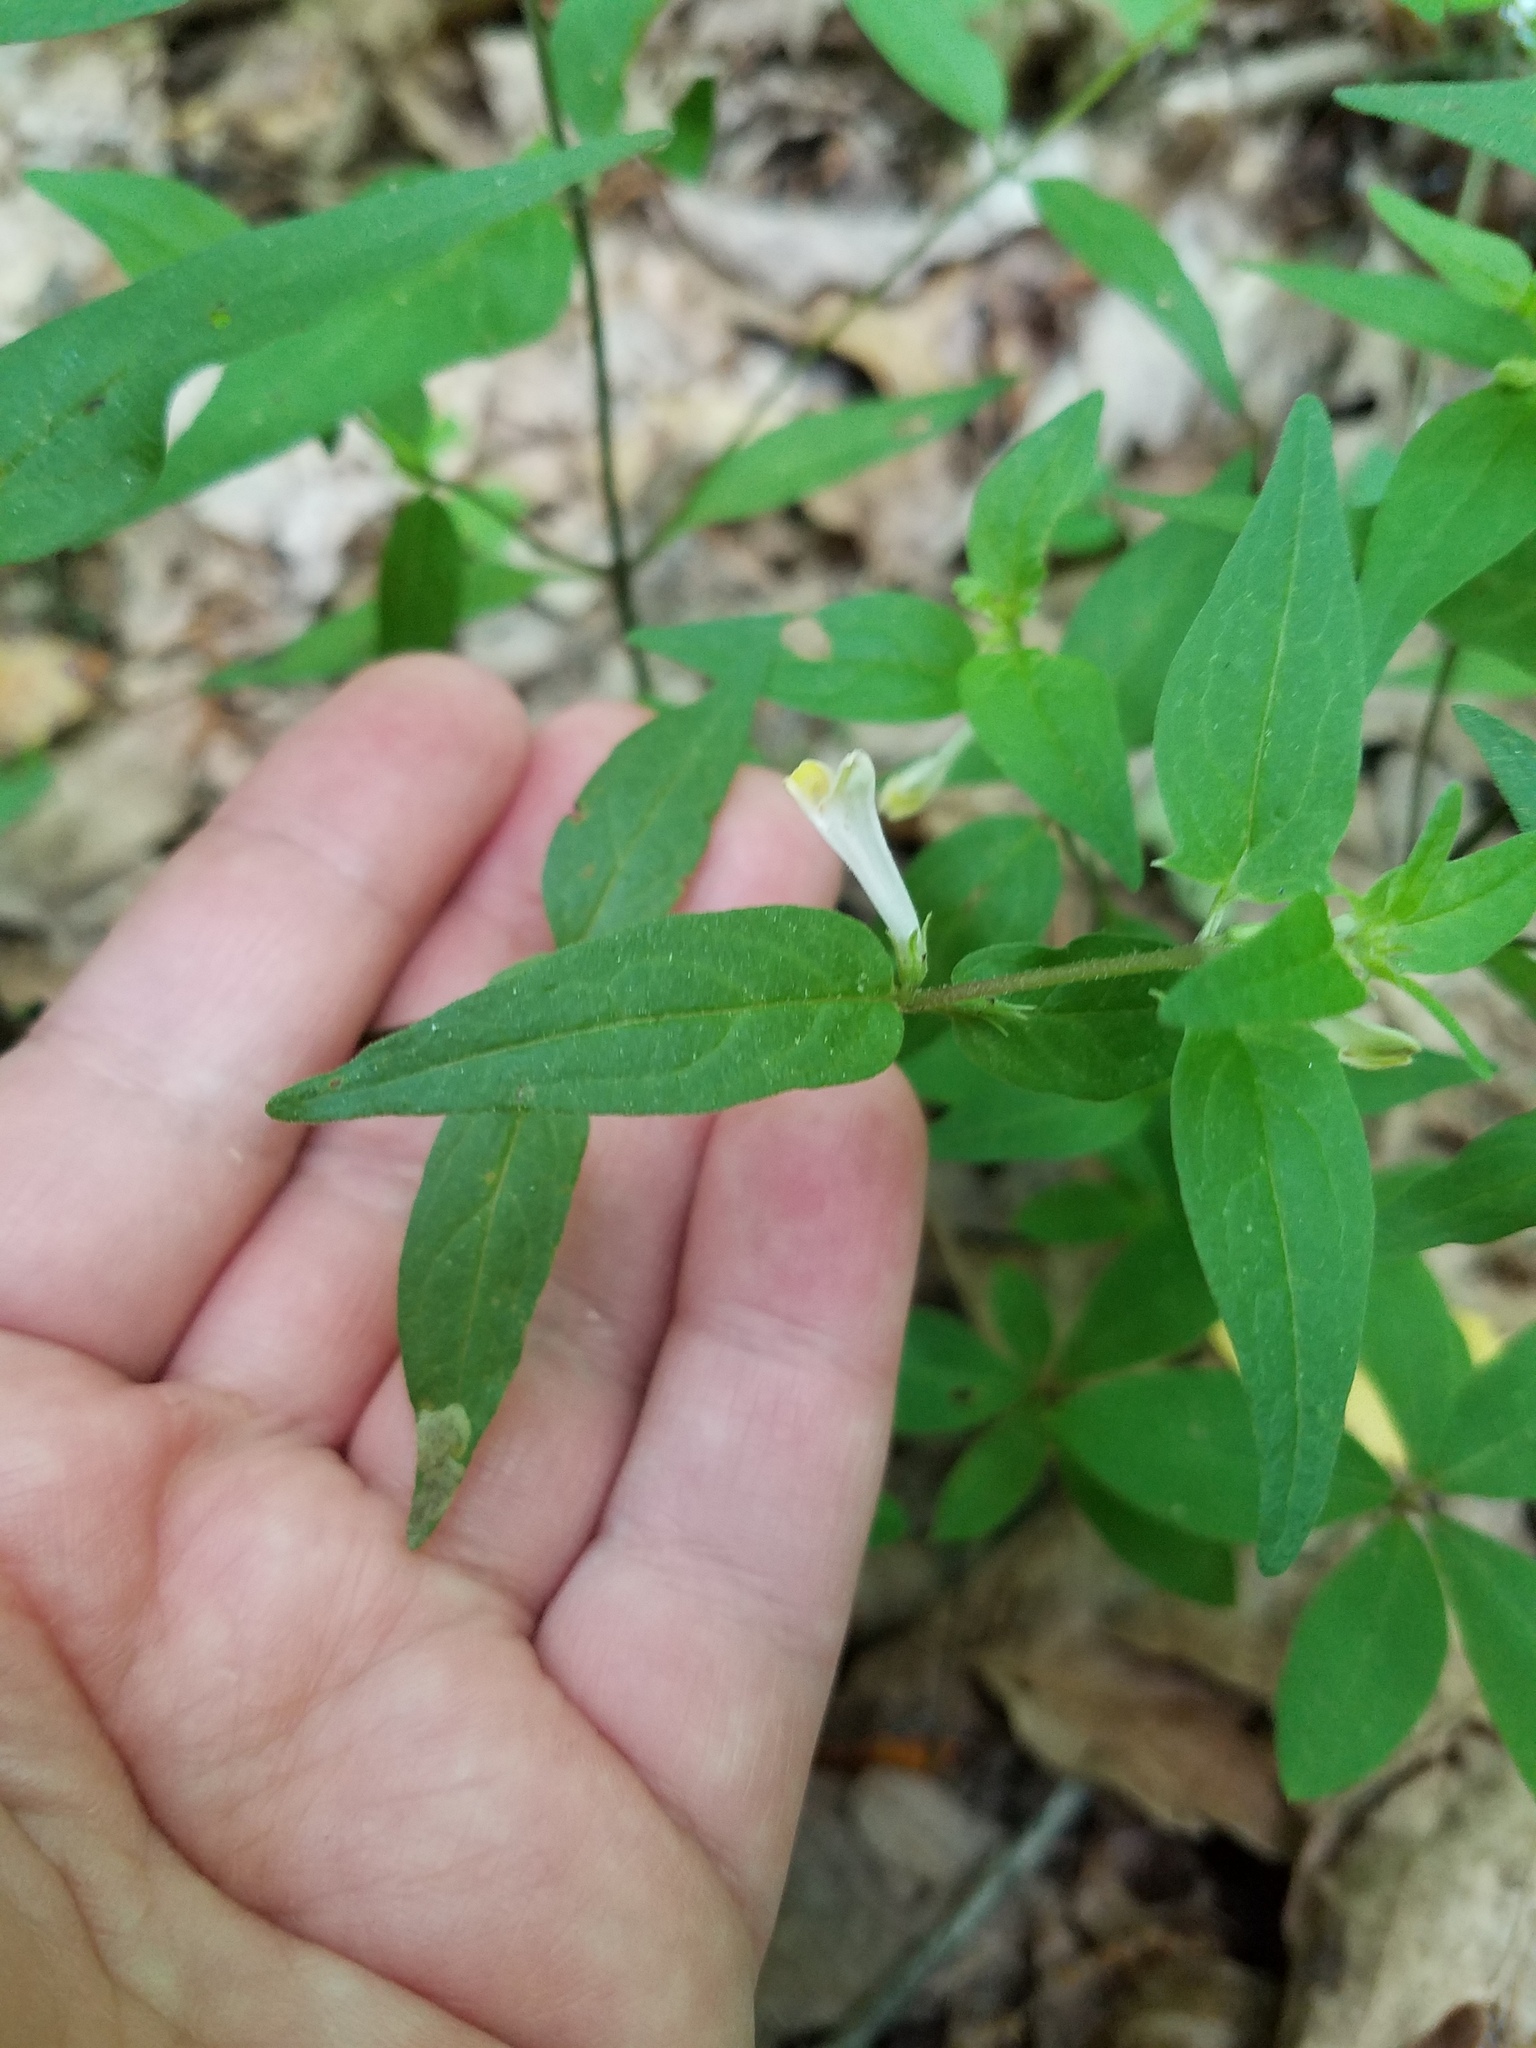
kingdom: Plantae
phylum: Tracheophyta
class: Magnoliopsida
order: Lamiales
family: Orobanchaceae
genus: Melampyrum
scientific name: Melampyrum lineare
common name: American cow-wheat
